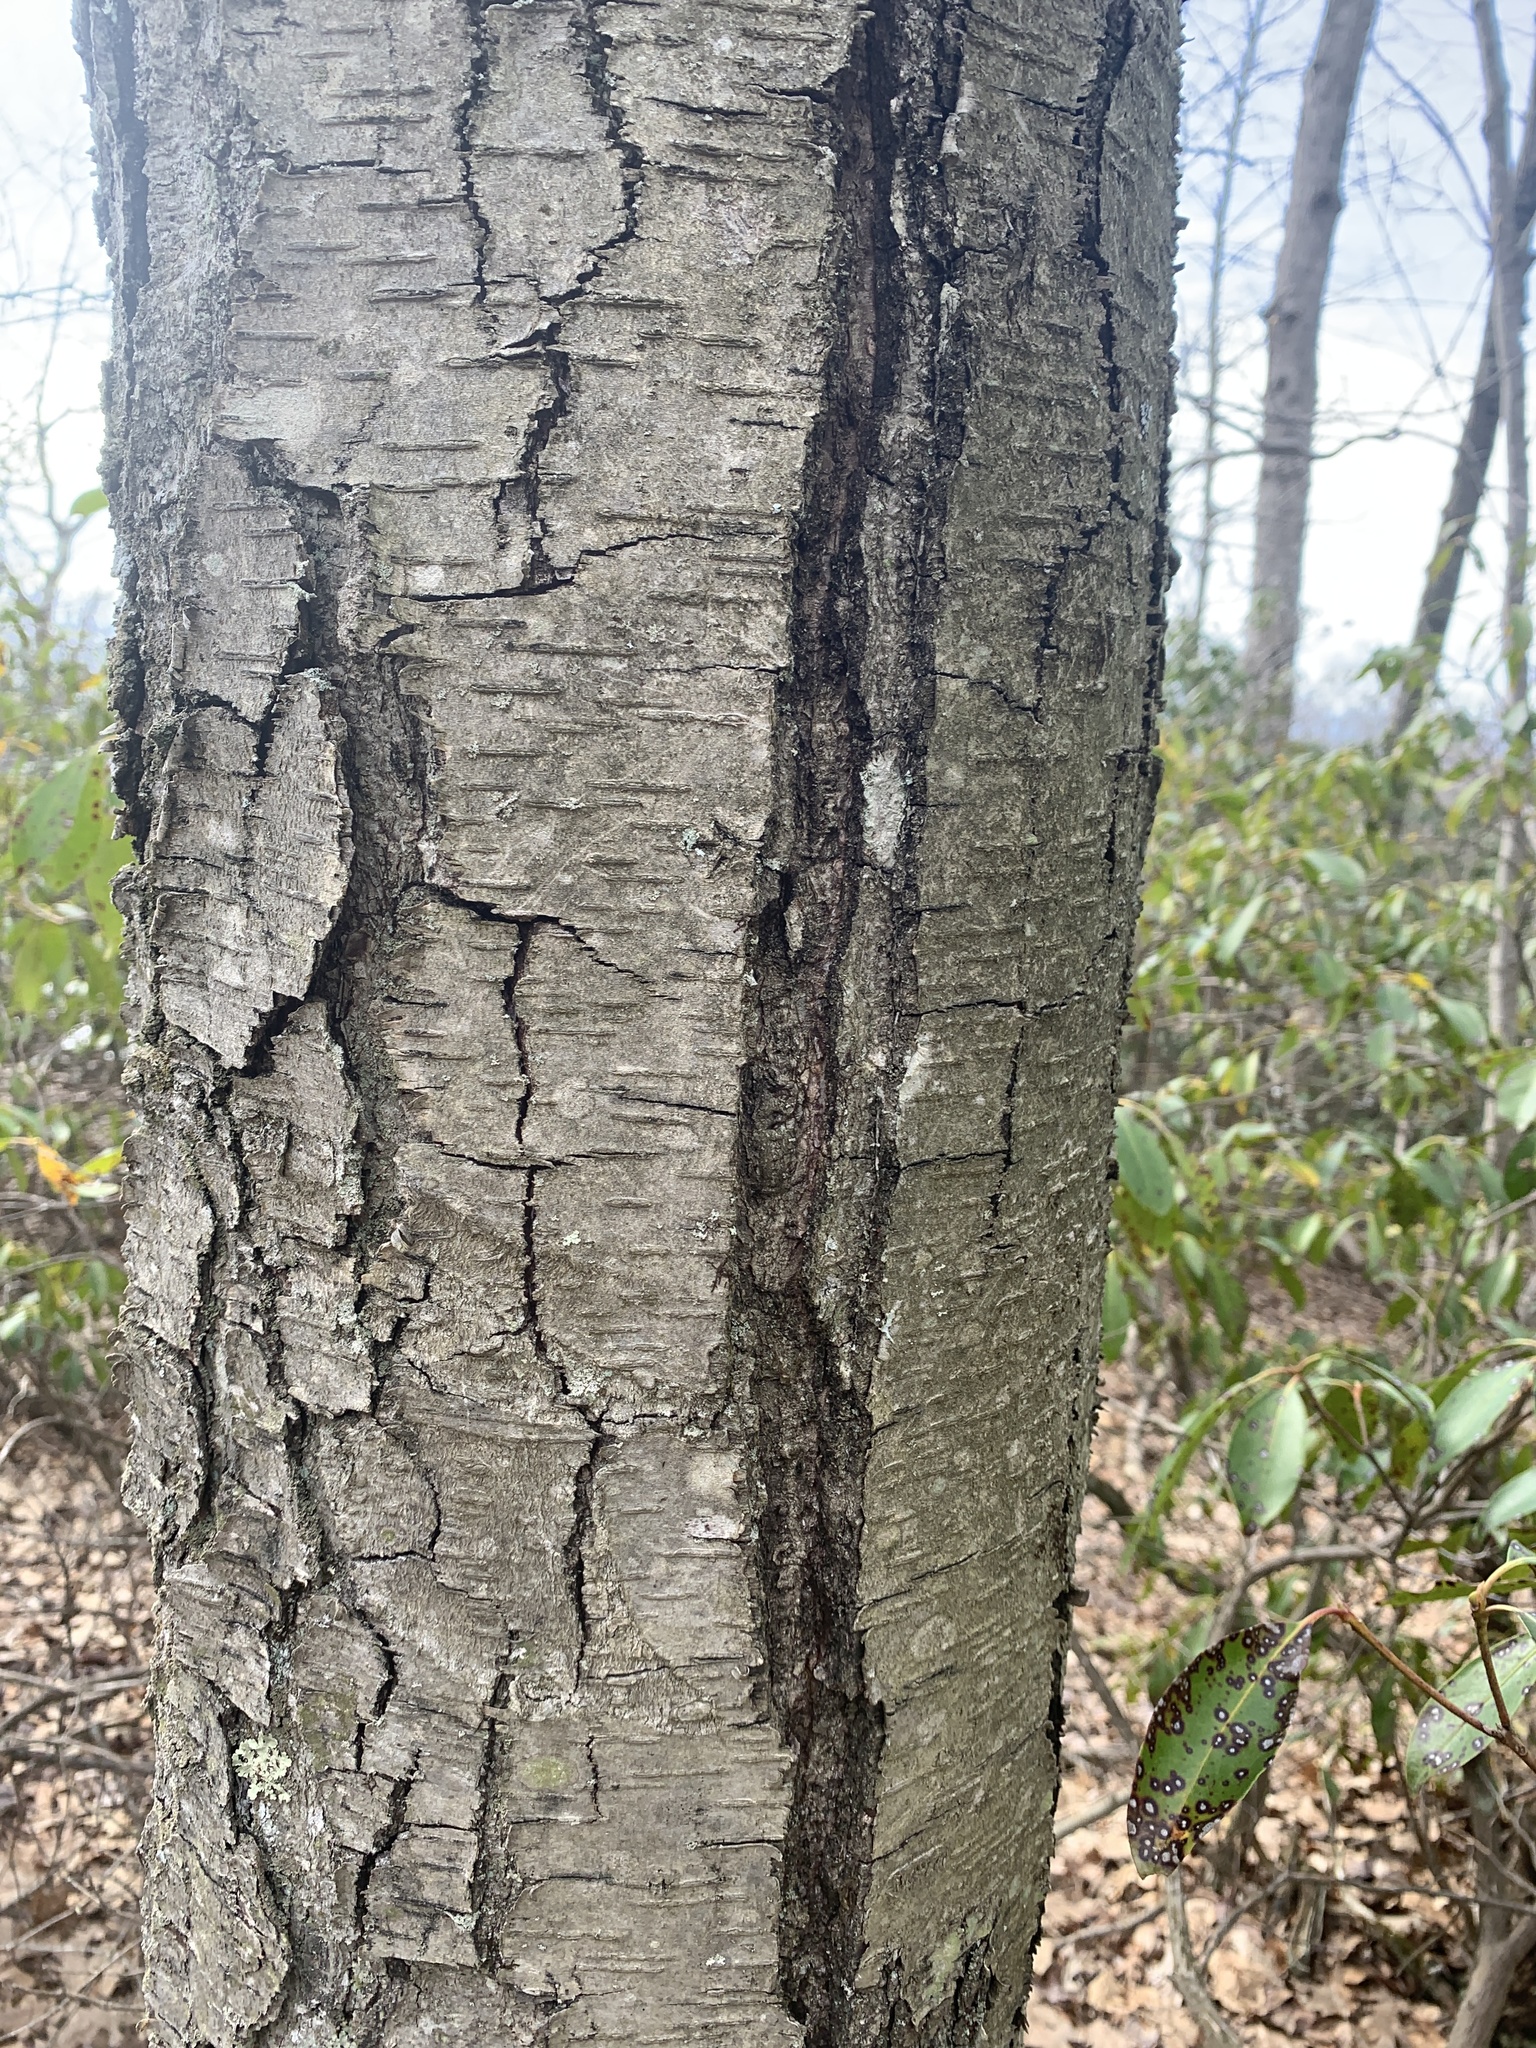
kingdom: Plantae
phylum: Tracheophyta
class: Magnoliopsida
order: Fagales
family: Betulaceae
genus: Betula
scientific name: Betula lenta
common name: Black birch
